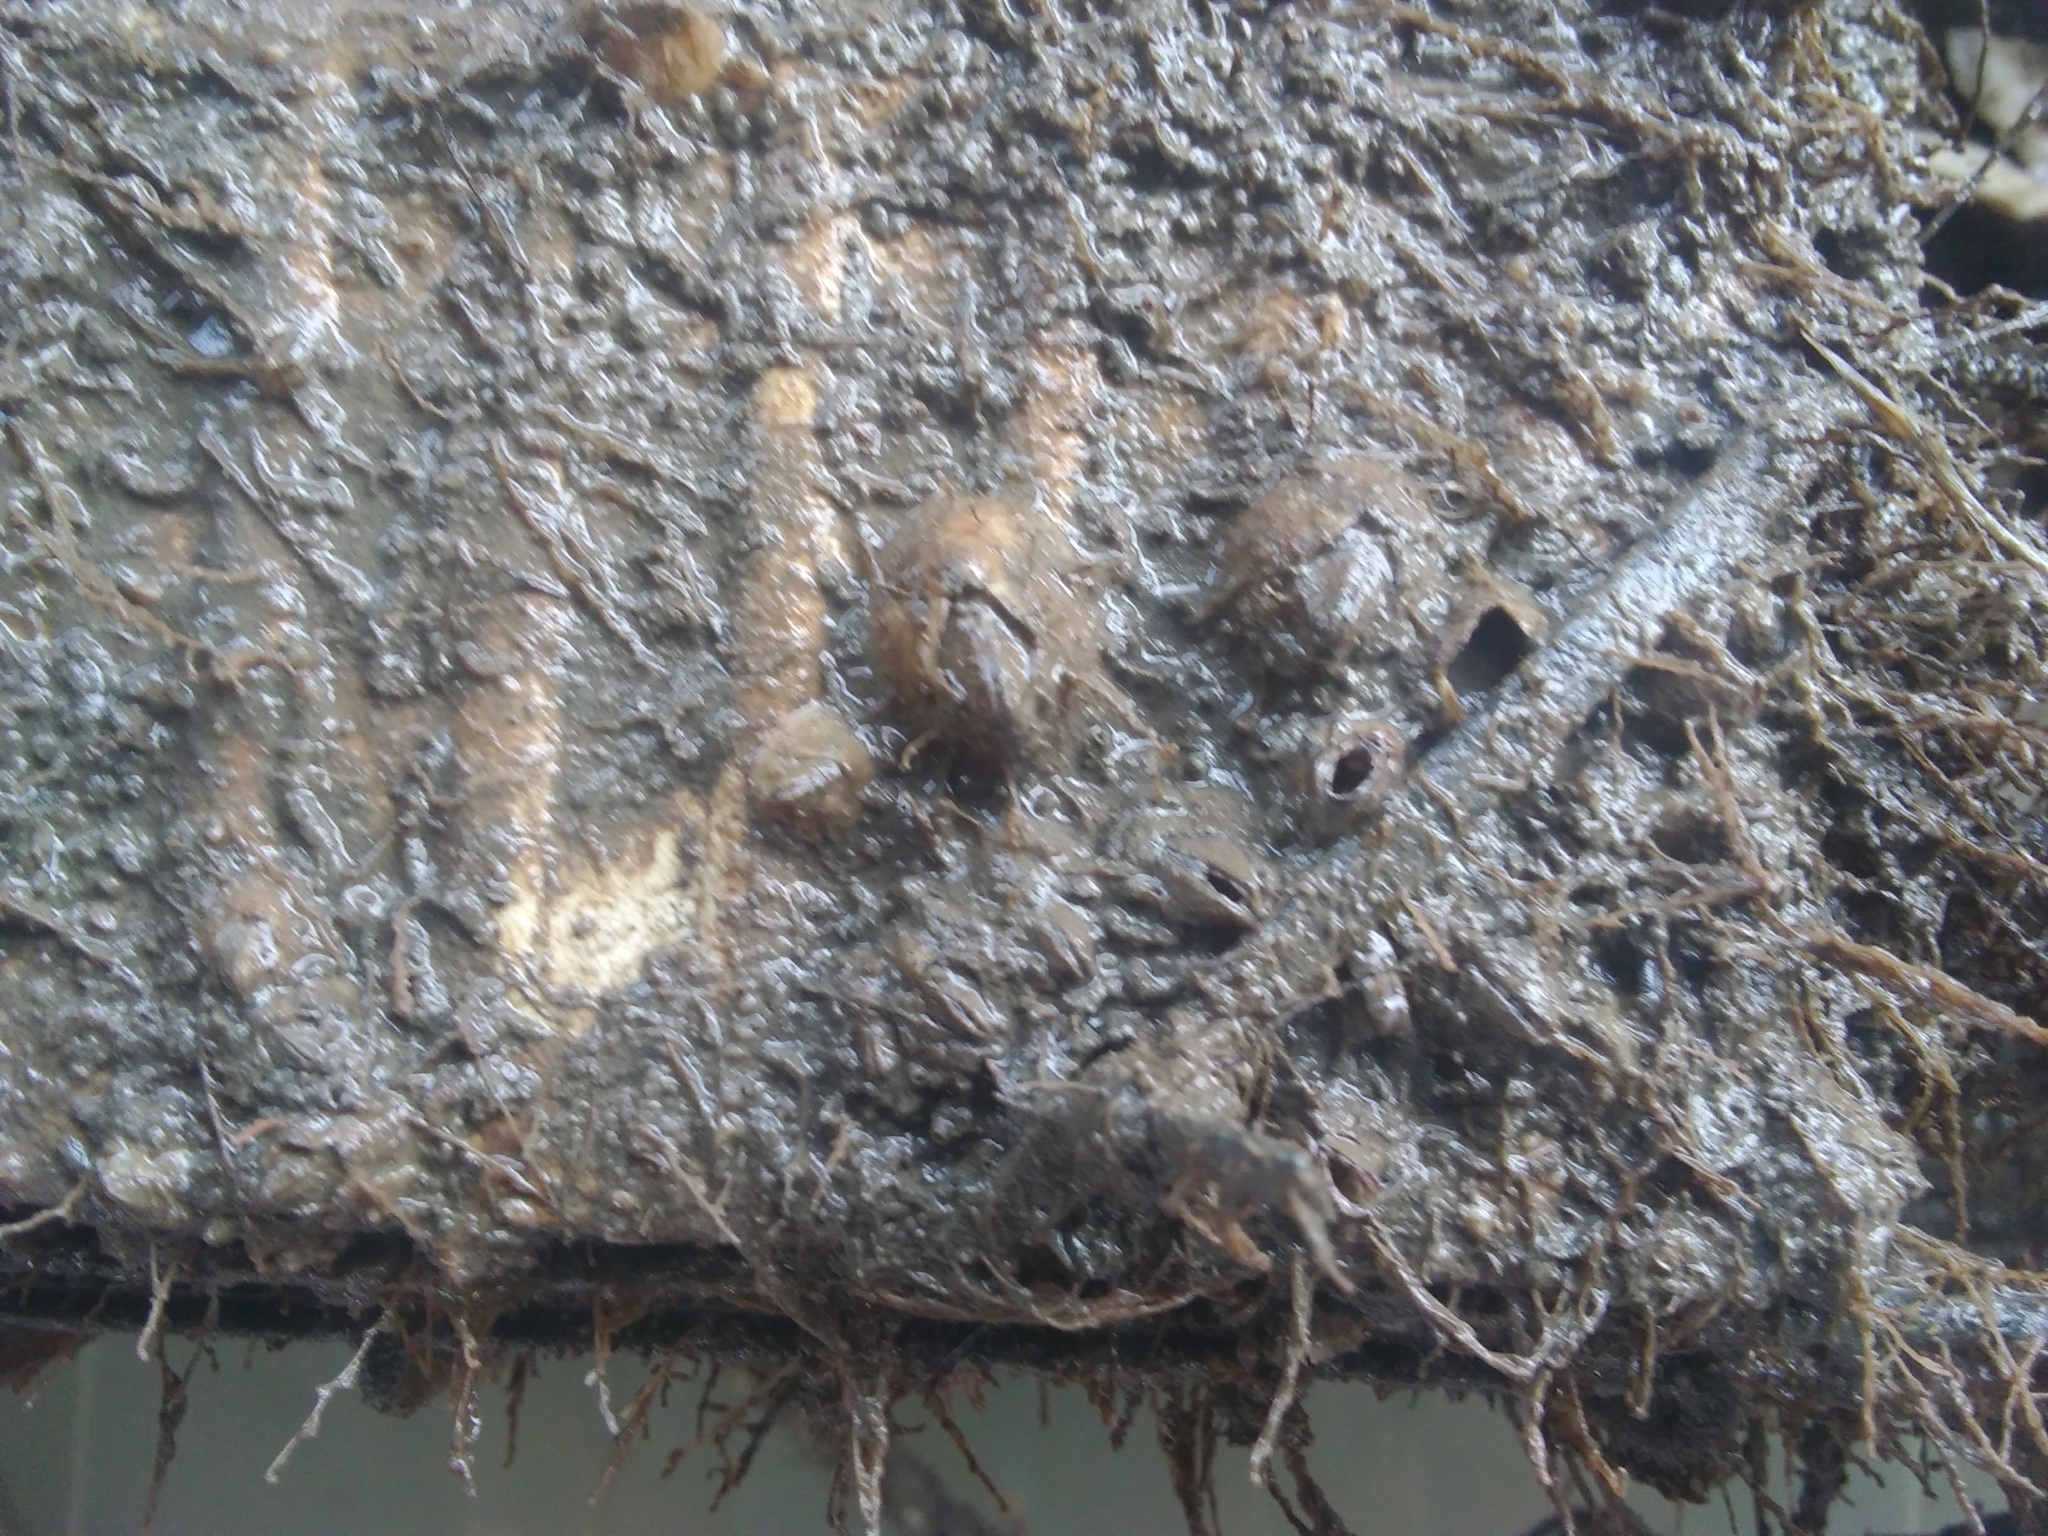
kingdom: Animalia
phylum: Arthropoda
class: Maxillopoda
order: Sessilia
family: Balanidae
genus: Amphibalanus
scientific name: Amphibalanus improvisus
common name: Bay barnacle
